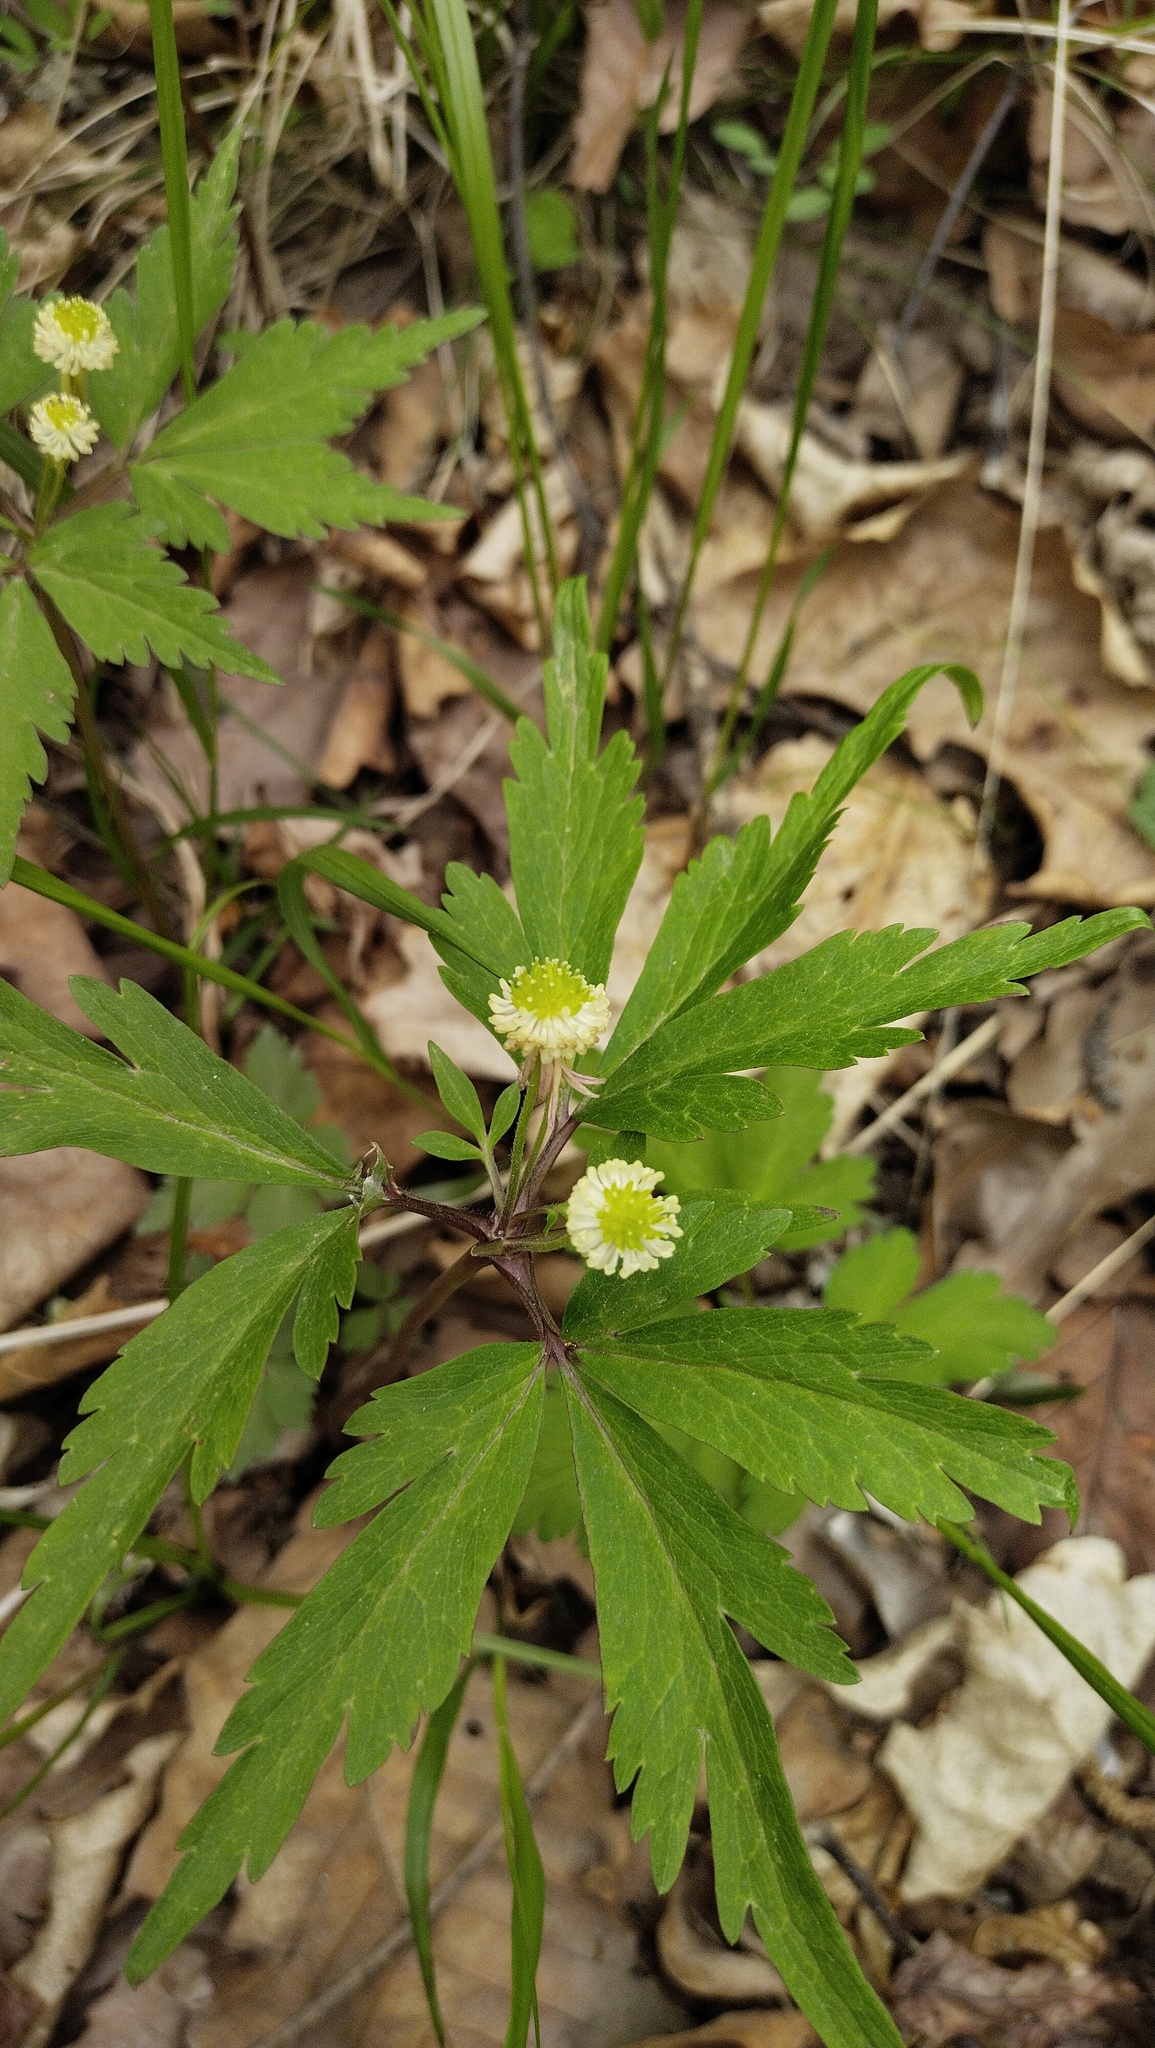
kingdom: Plantae
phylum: Tracheophyta
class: Magnoliopsida
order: Ranunculales
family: Ranunculaceae
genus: Anemone
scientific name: Anemone reflexa
